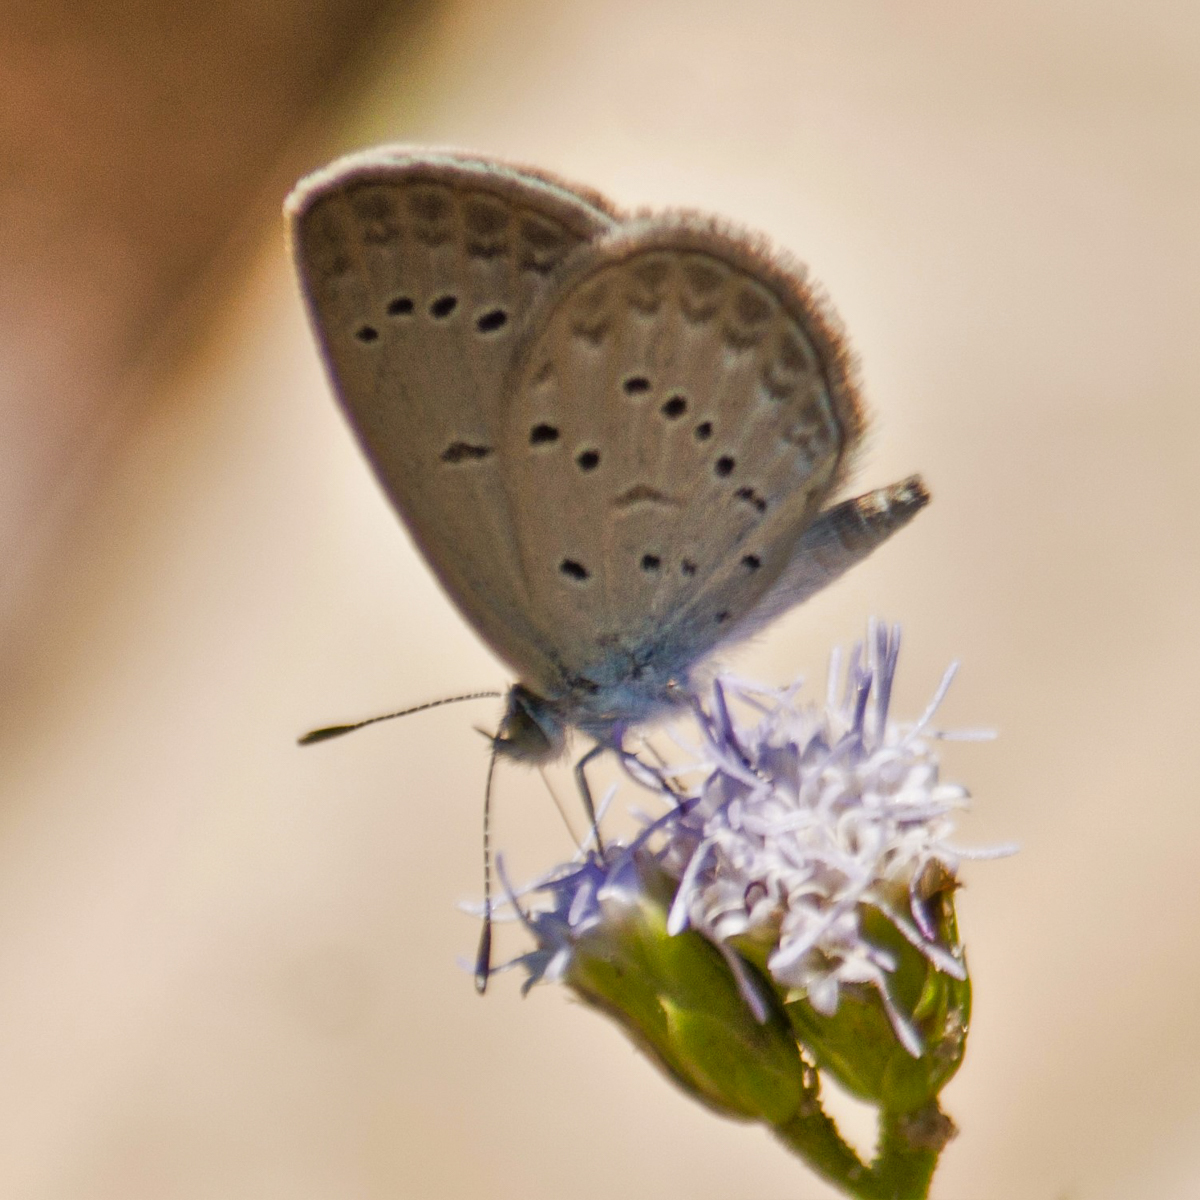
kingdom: Animalia
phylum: Arthropoda
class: Insecta
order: Lepidoptera
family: Lycaenidae
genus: Zizina
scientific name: Zizina otis
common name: Lesser grass blue
